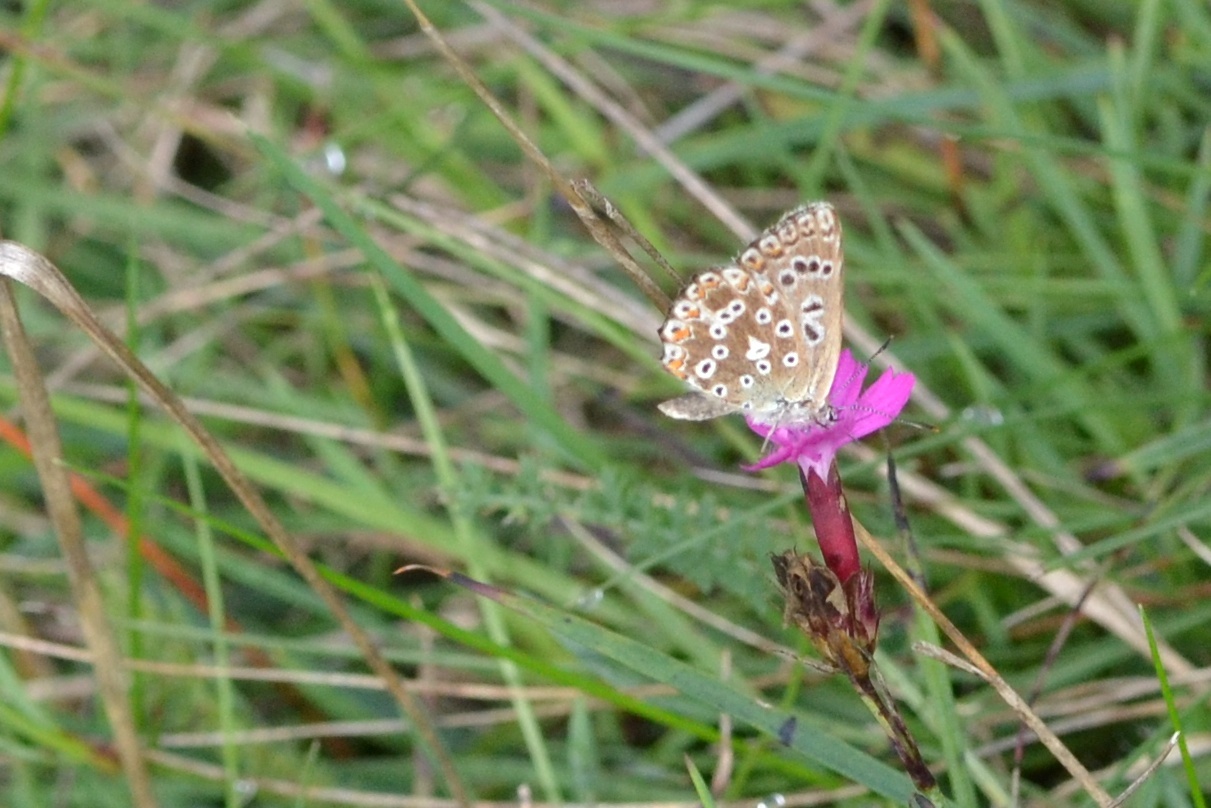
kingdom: Animalia
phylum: Arthropoda
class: Insecta
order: Lepidoptera
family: Lycaenidae
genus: Lysandra
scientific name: Lysandra coridon
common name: Chalkhill blue
